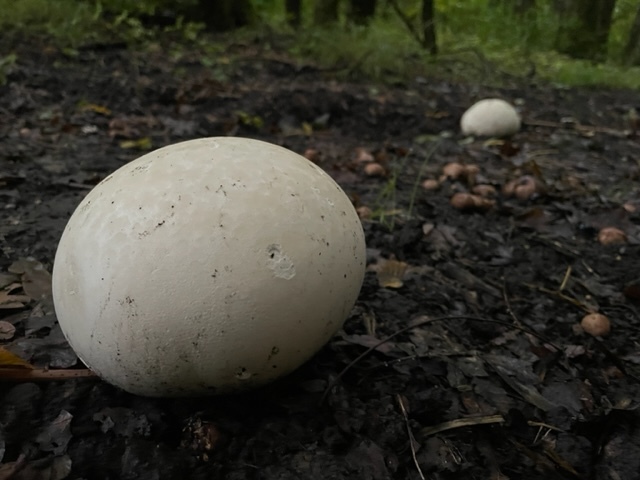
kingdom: Fungi
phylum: Basidiomycota
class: Agaricomycetes
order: Agaricales
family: Lycoperdaceae
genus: Calvatia
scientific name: Calvatia gigantea
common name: Giant puffball
